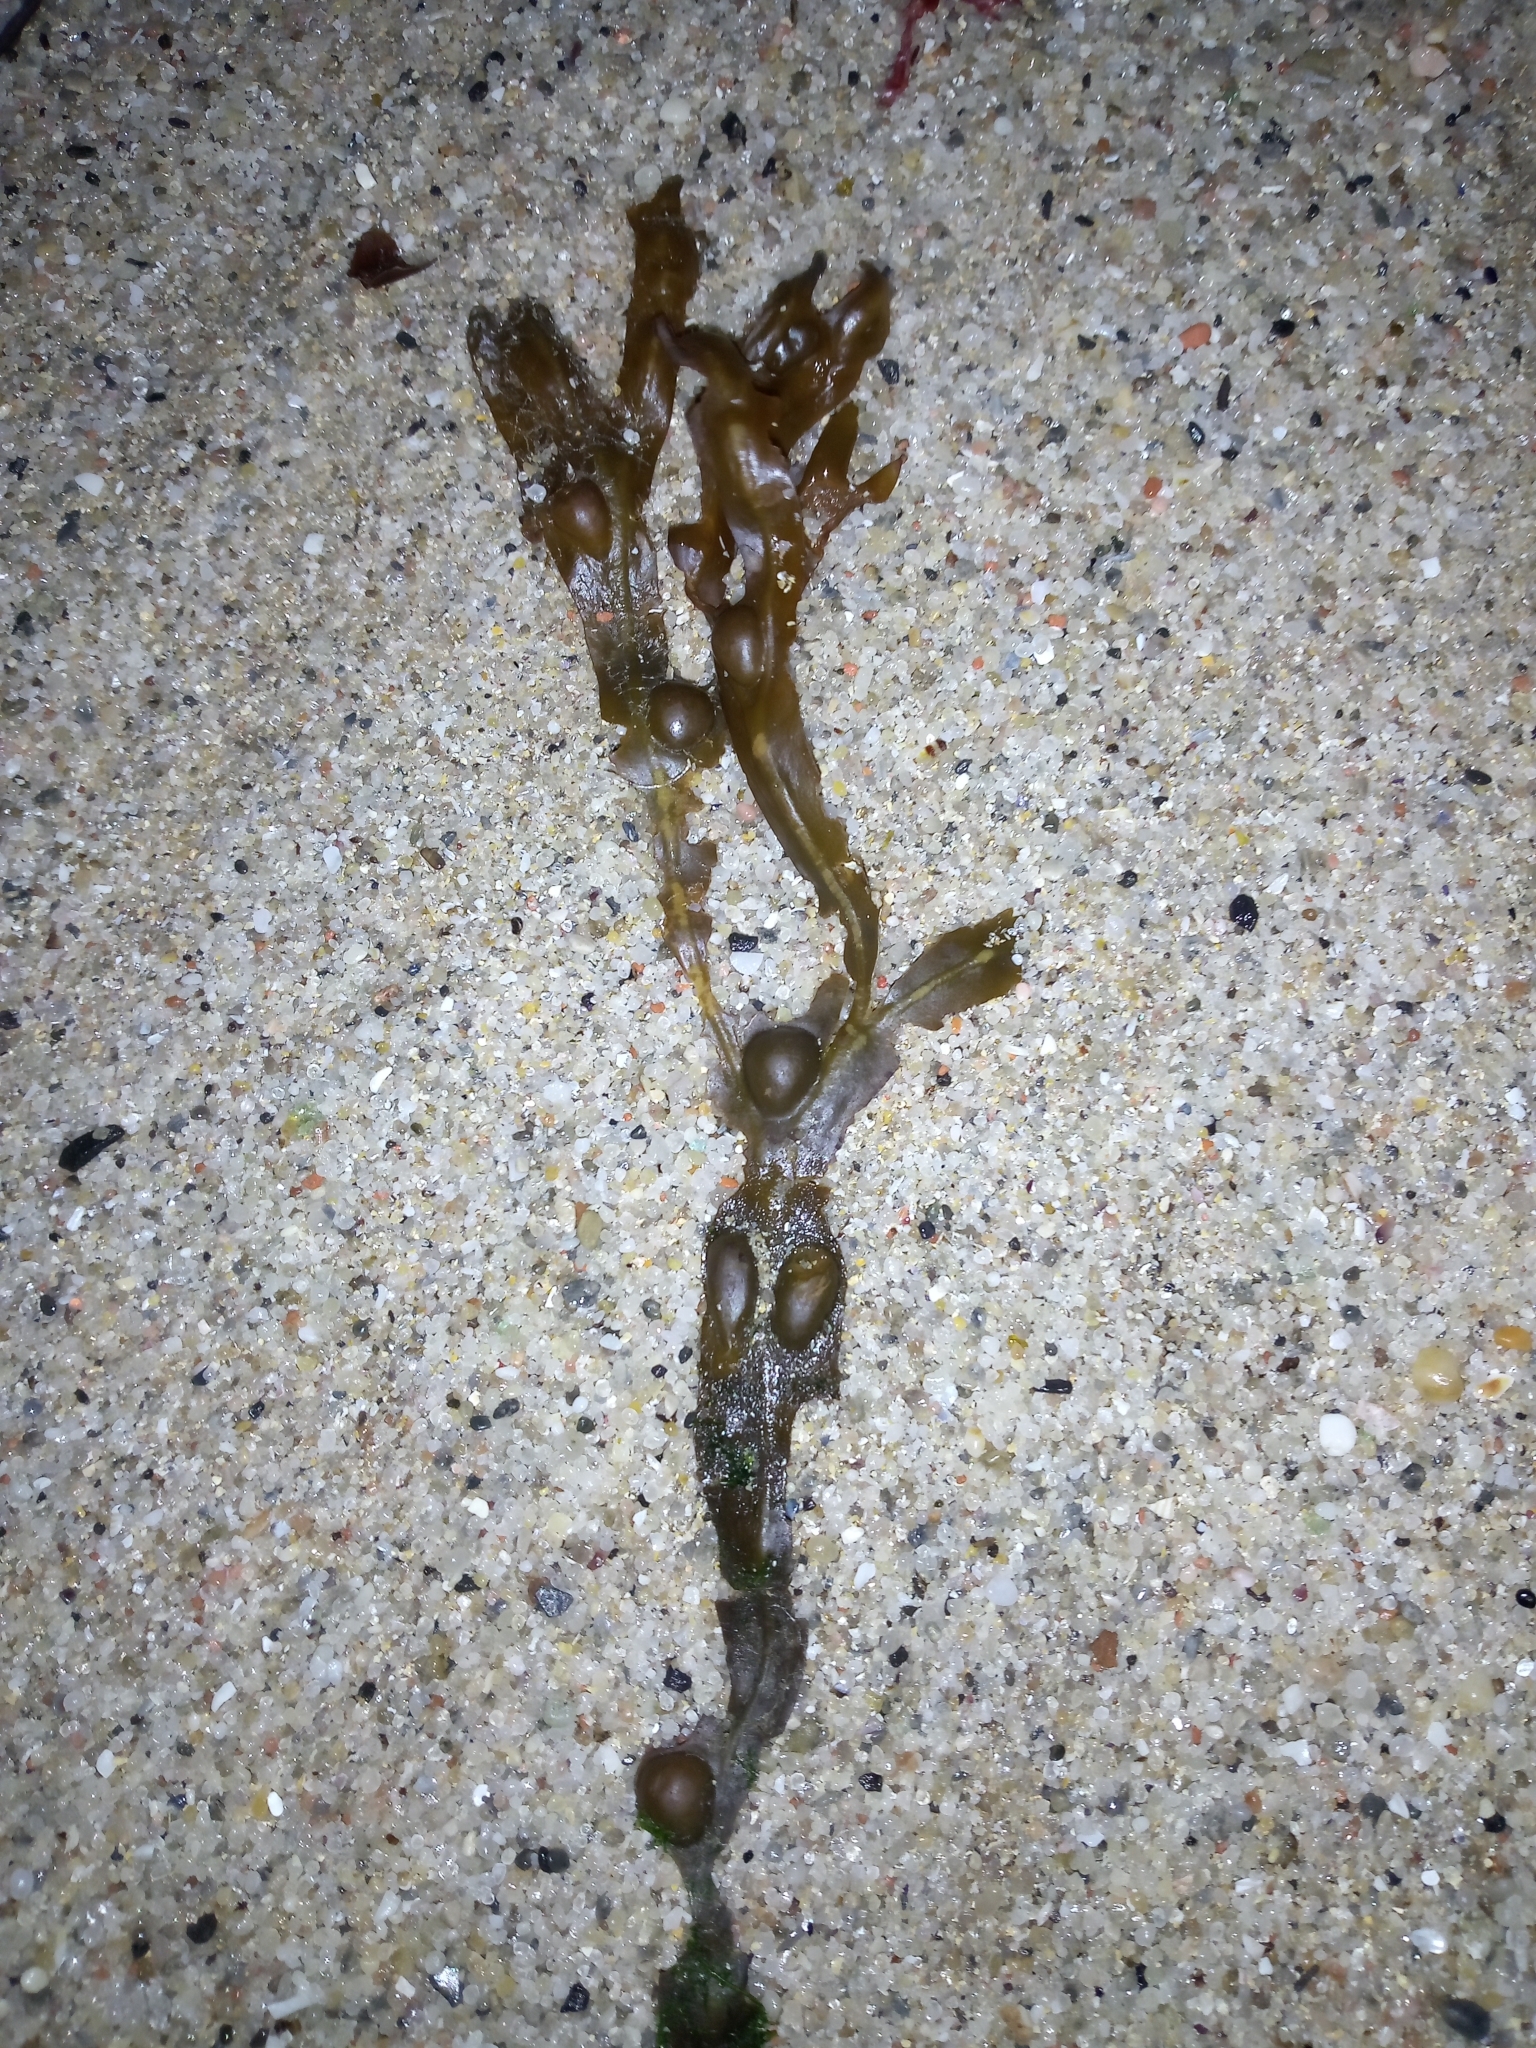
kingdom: Chromista
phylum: Ochrophyta
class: Phaeophyceae
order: Fucales
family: Fucaceae
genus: Fucus
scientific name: Fucus vesiculosus
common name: Bladder wrack
